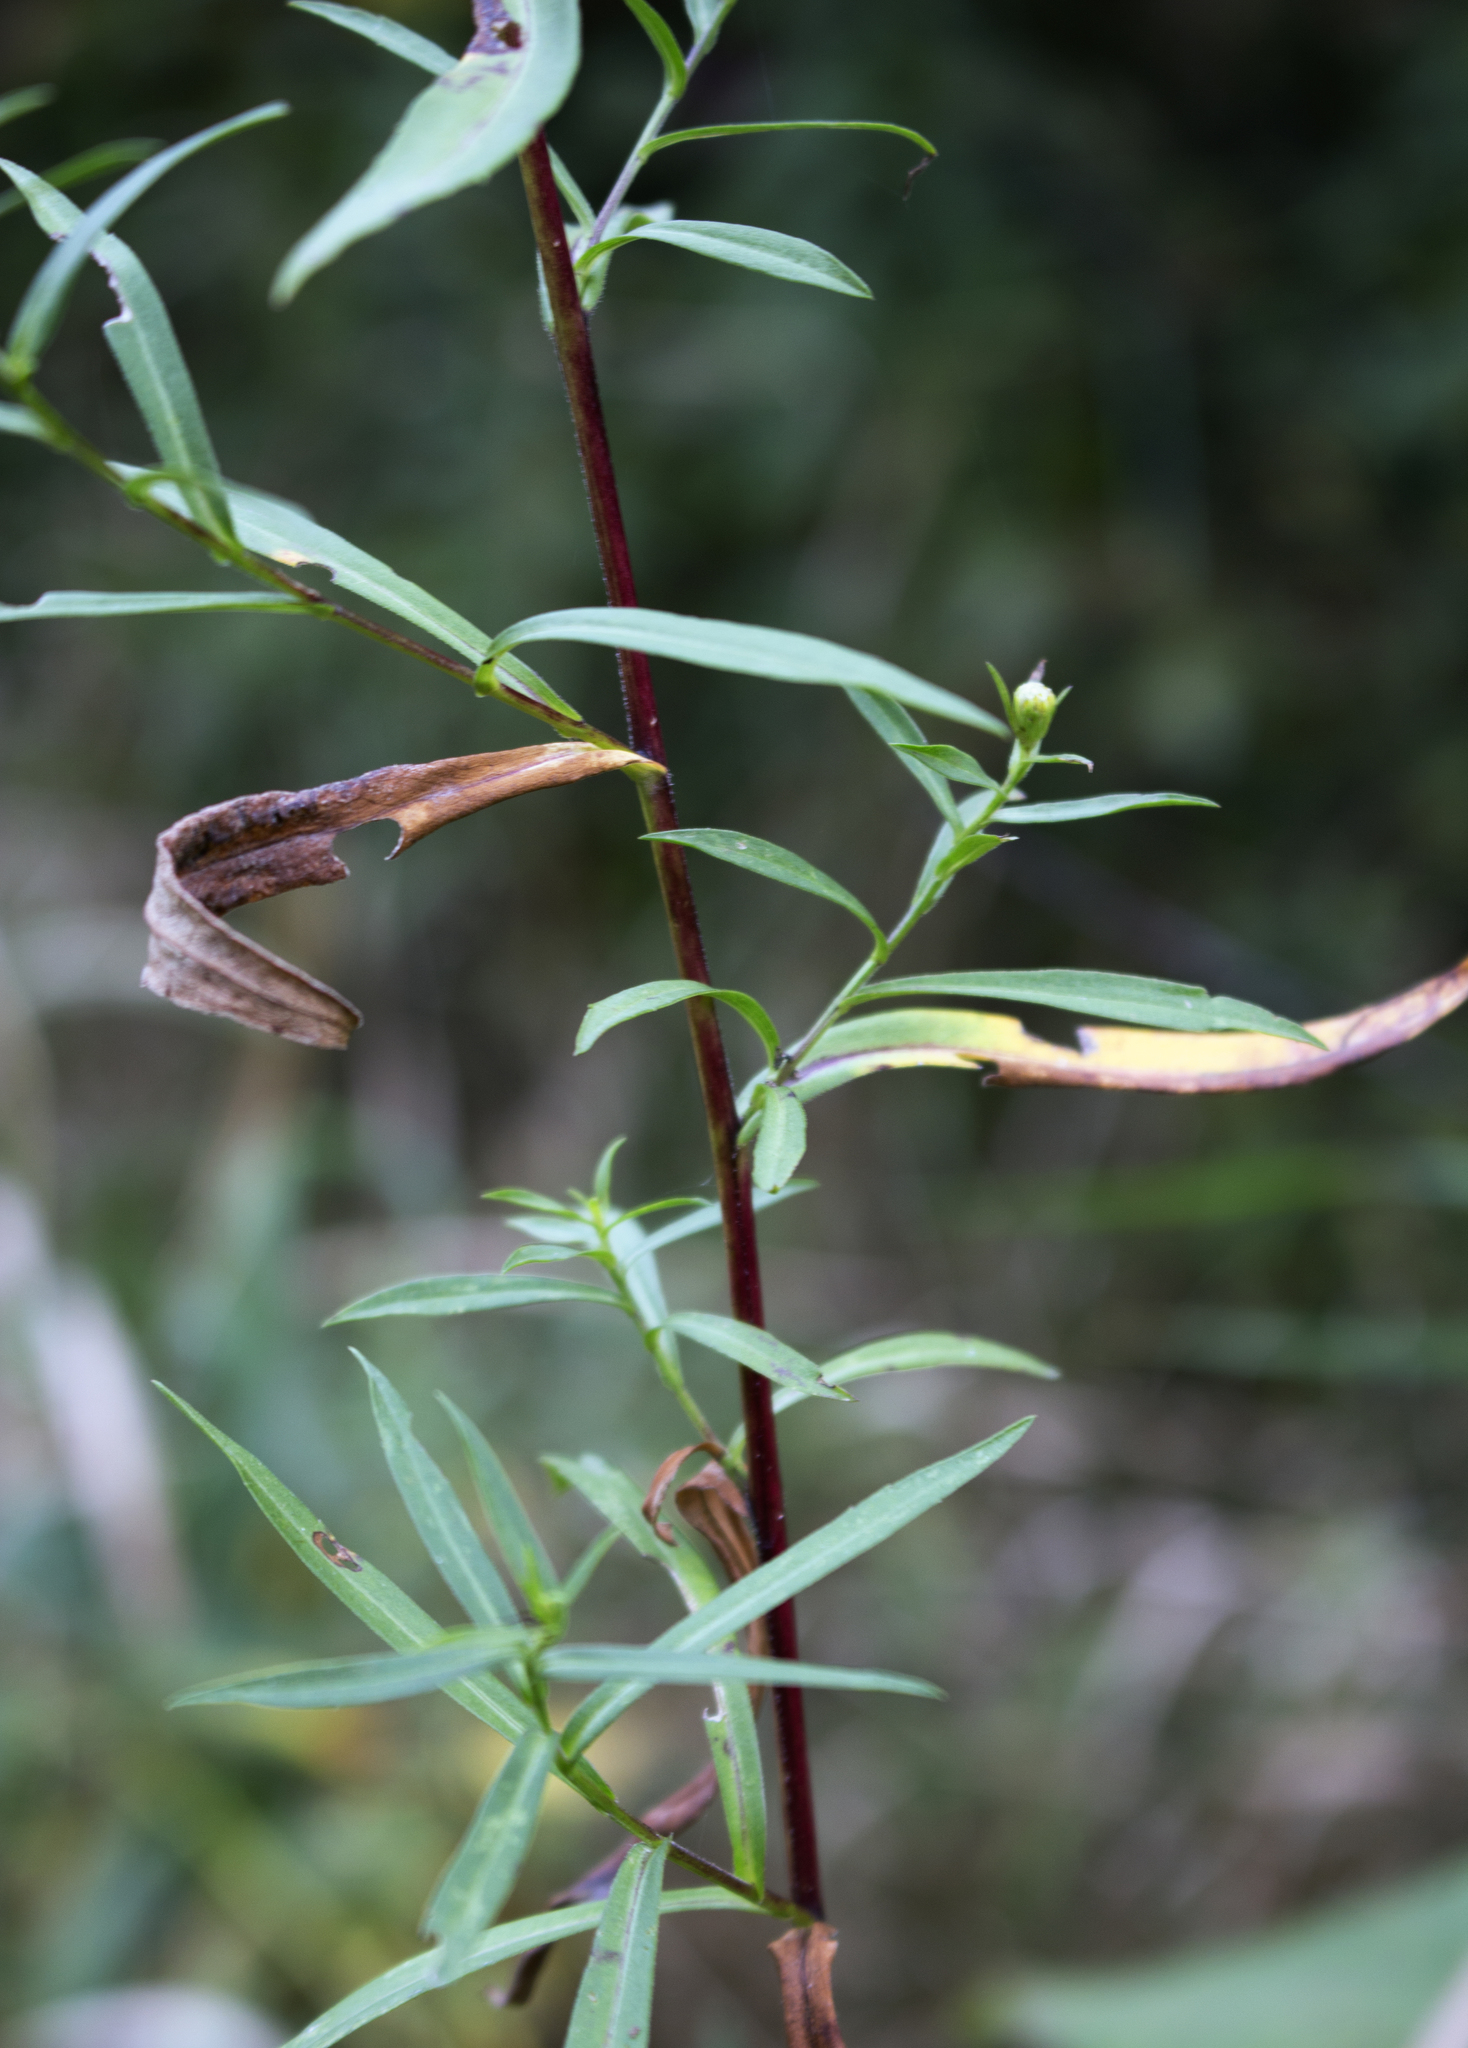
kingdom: Plantae
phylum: Tracheophyta
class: Magnoliopsida
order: Asterales
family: Asteraceae
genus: Symphyotrichum
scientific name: Symphyotrichum lanceolatum
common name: Panicled aster
